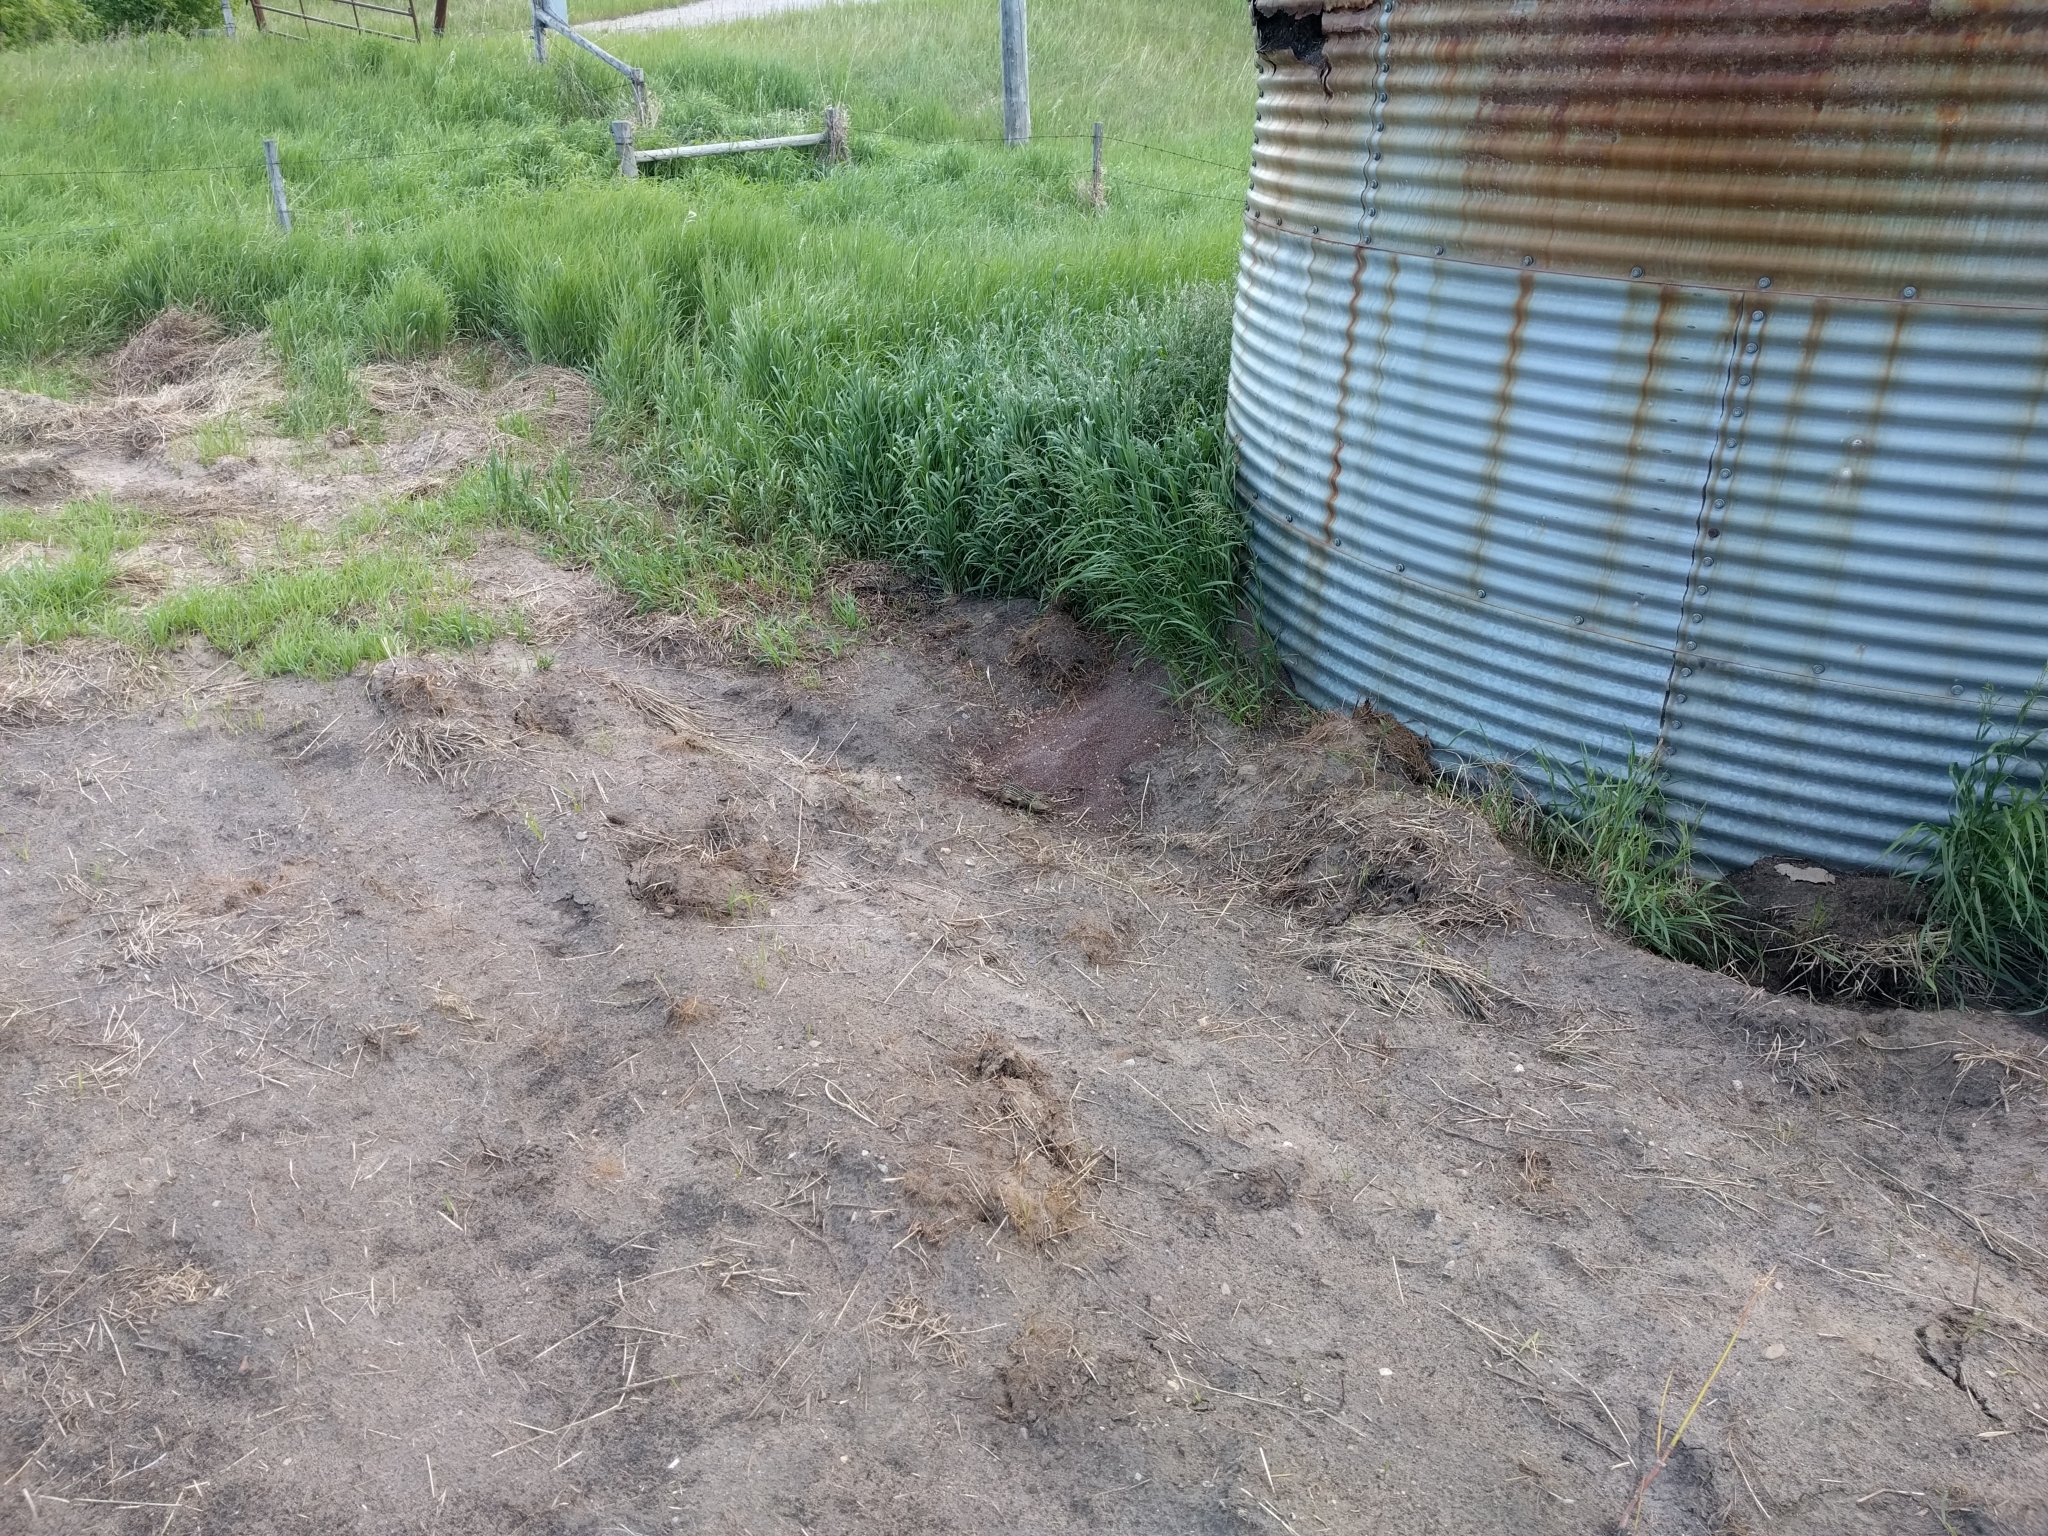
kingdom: Animalia
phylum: Chordata
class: Mammalia
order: Rodentia
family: Sciuridae
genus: Ictidomys
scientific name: Ictidomys tridecemlineatus
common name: Thirteen-lined ground squirrel
